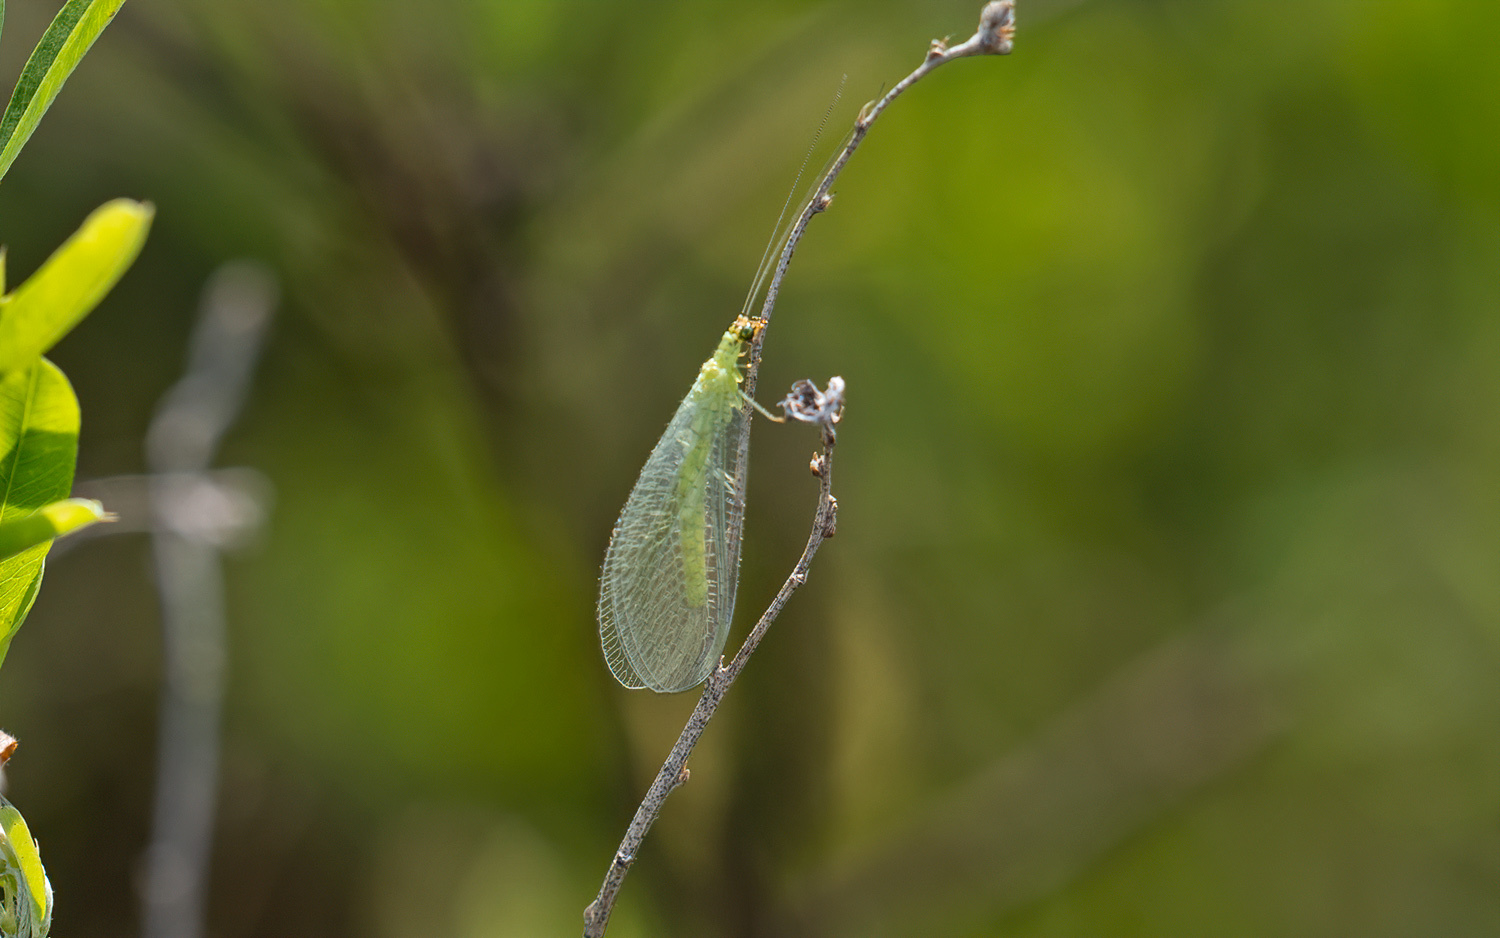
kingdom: Animalia
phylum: Arthropoda
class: Insecta
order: Neuroptera
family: Chrysopidae
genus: Chrysopa
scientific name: Chrysopa oculata
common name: Golden-eyed lacewing
